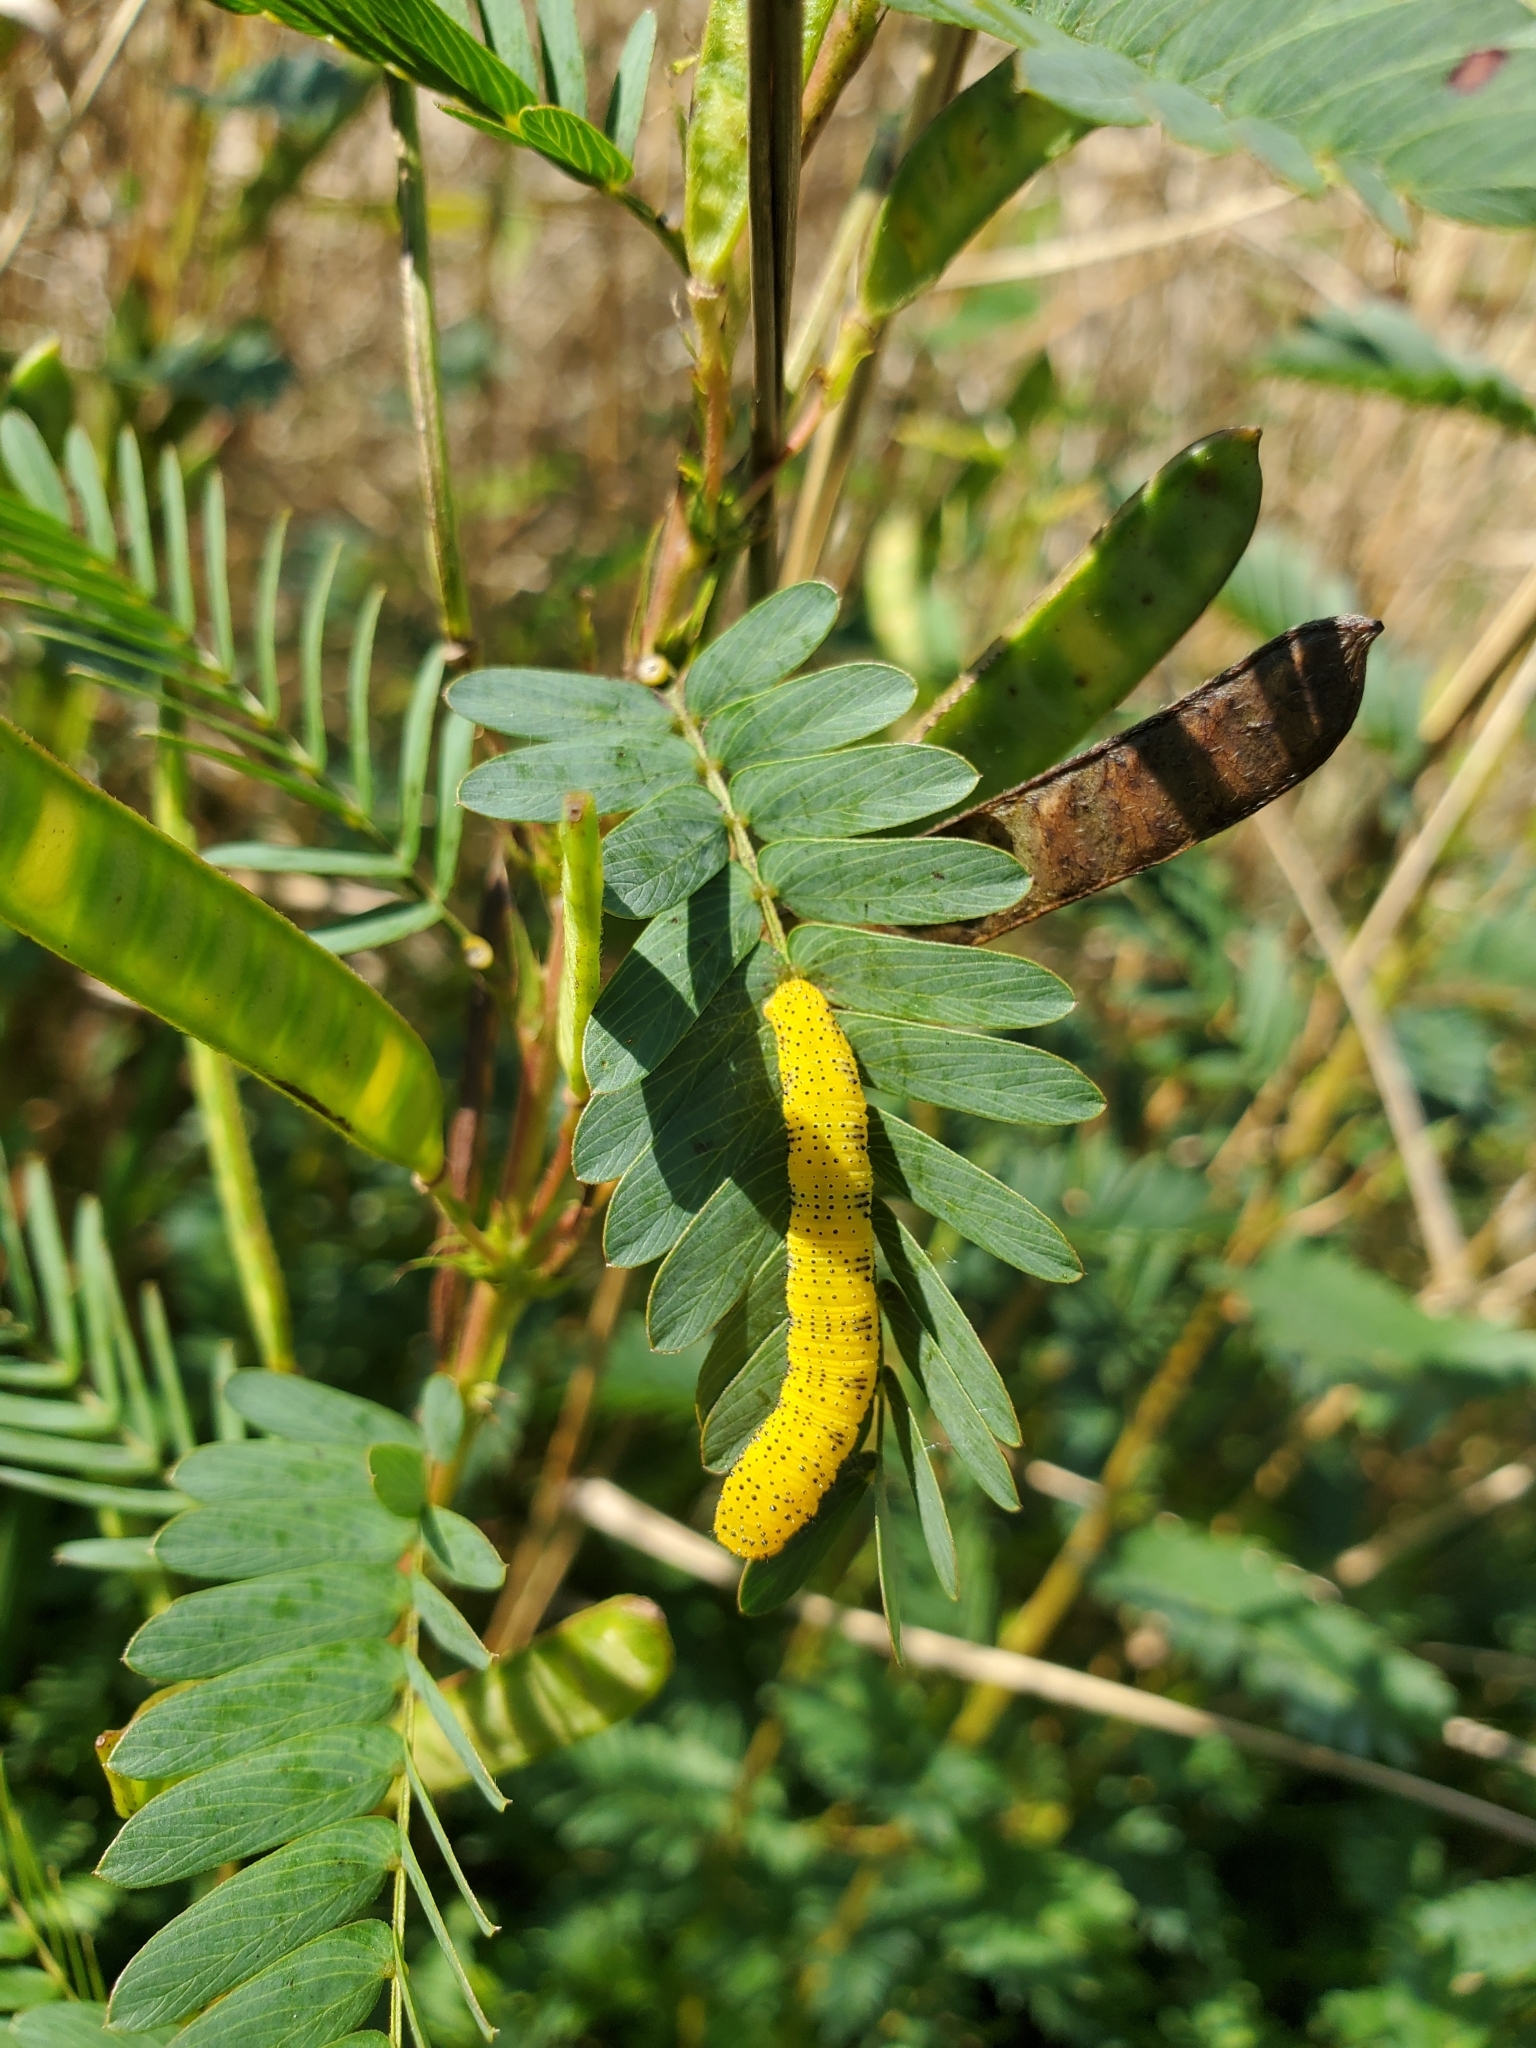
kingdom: Animalia
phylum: Arthropoda
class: Insecta
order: Lepidoptera
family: Pieridae
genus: Phoebis
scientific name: Phoebis sennae
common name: Cloudless sulphur
